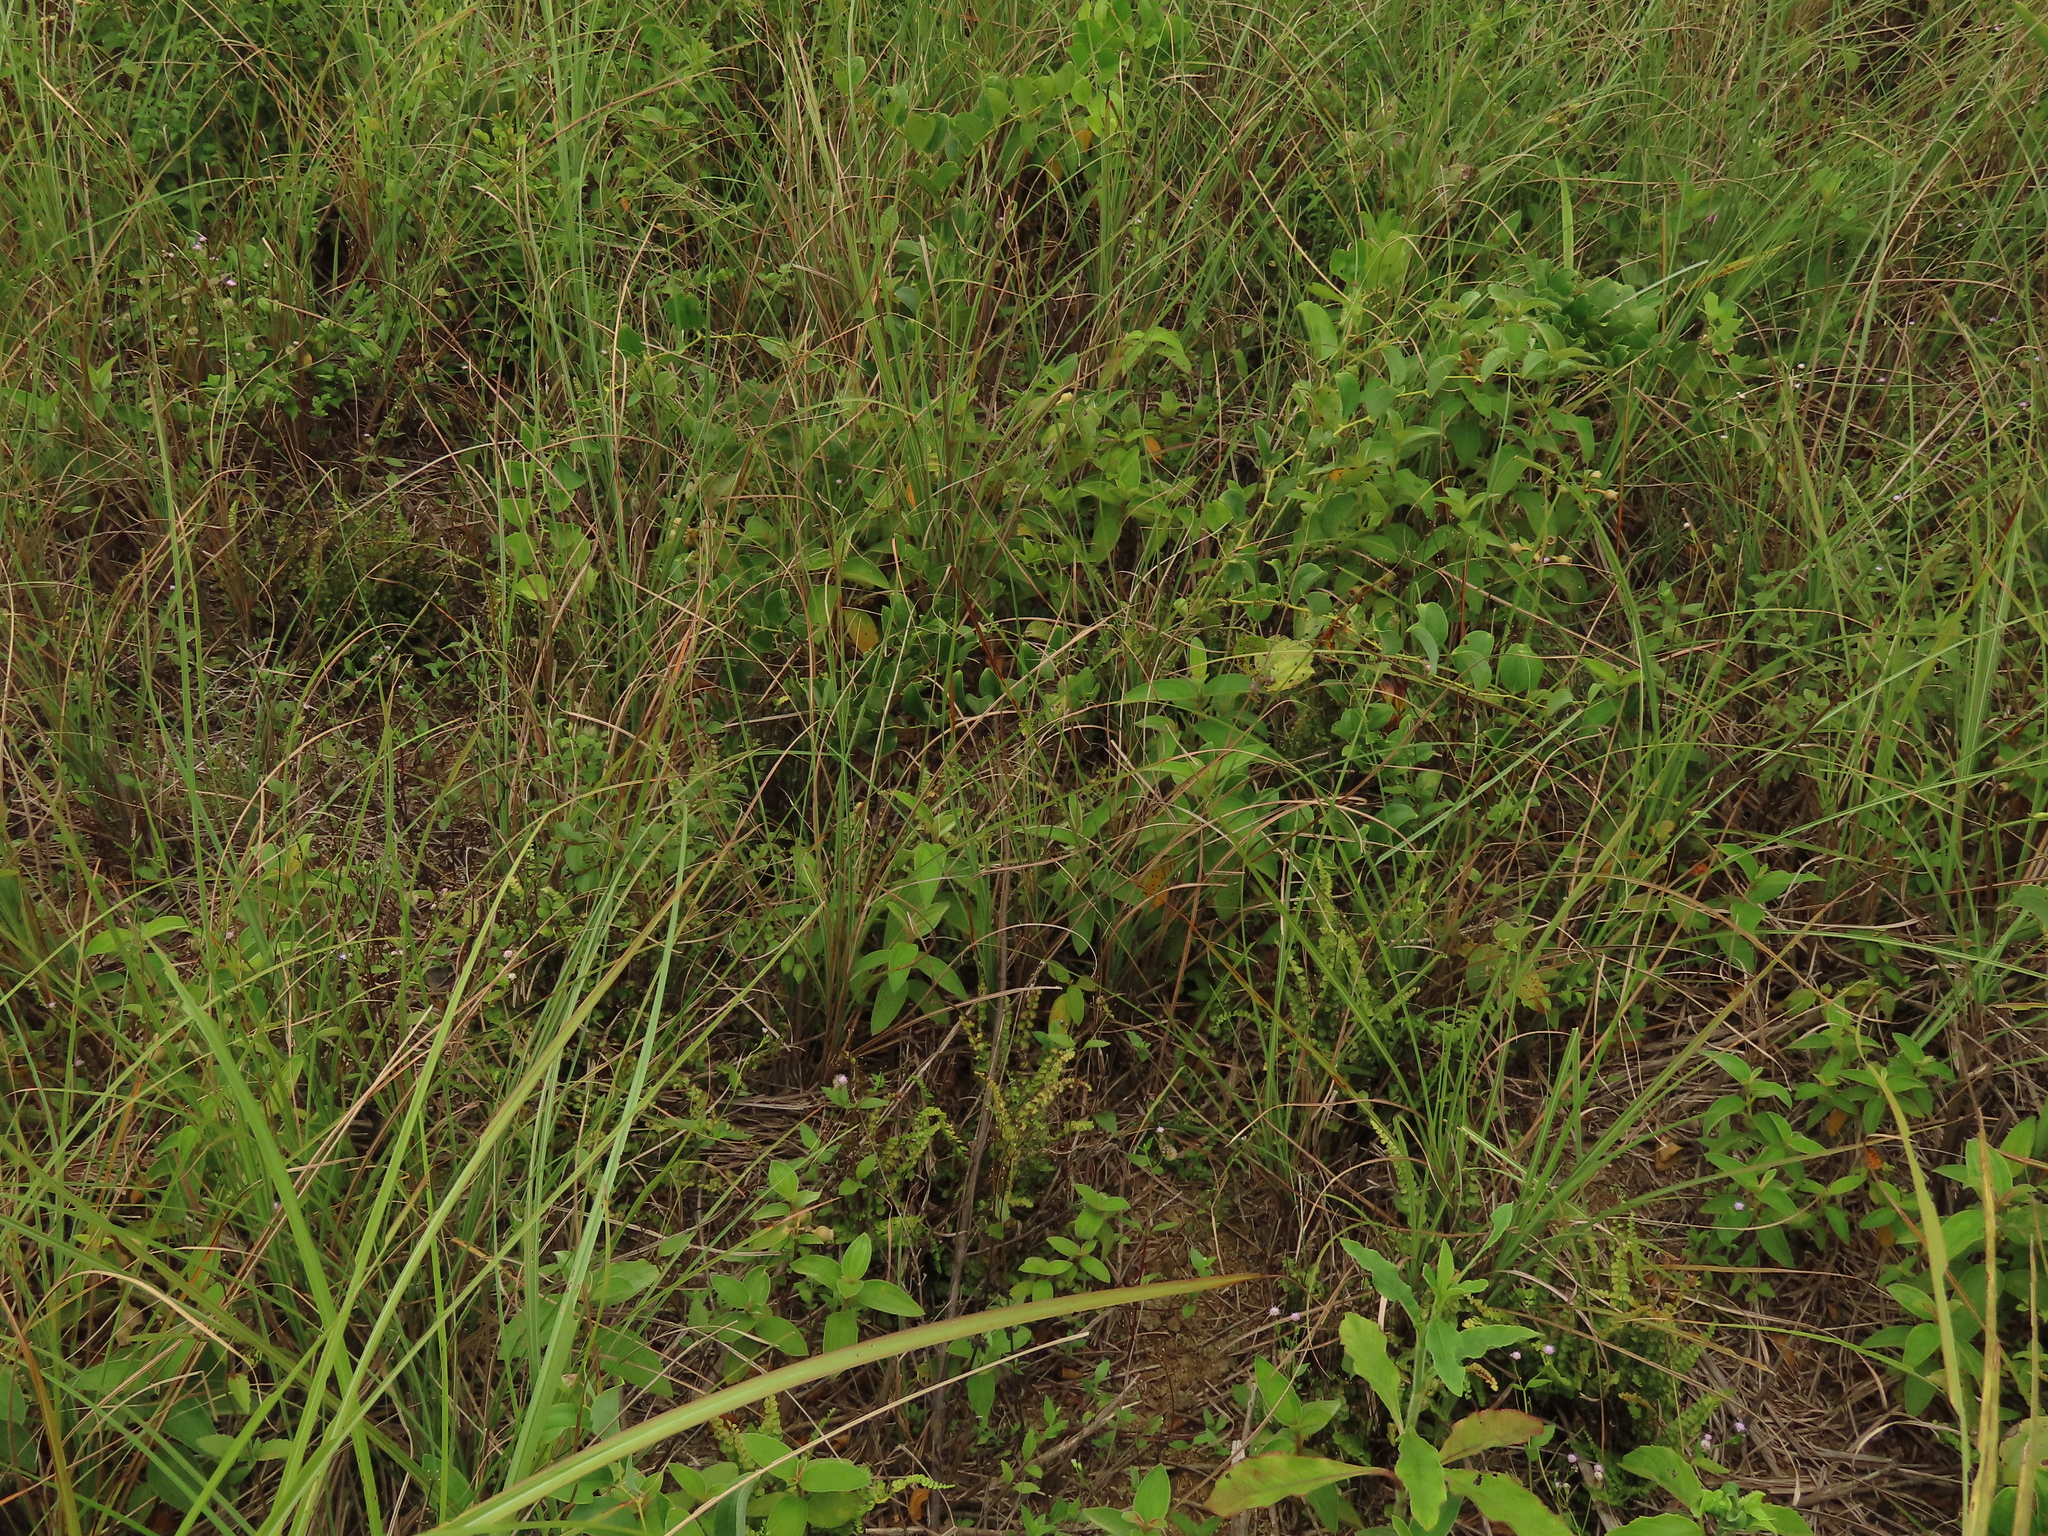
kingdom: Plantae
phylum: Tracheophyta
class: Polypodiopsida
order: Polypodiales
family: Lindsaeaceae
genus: Lindsaea
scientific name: Lindsaea orbiculata
